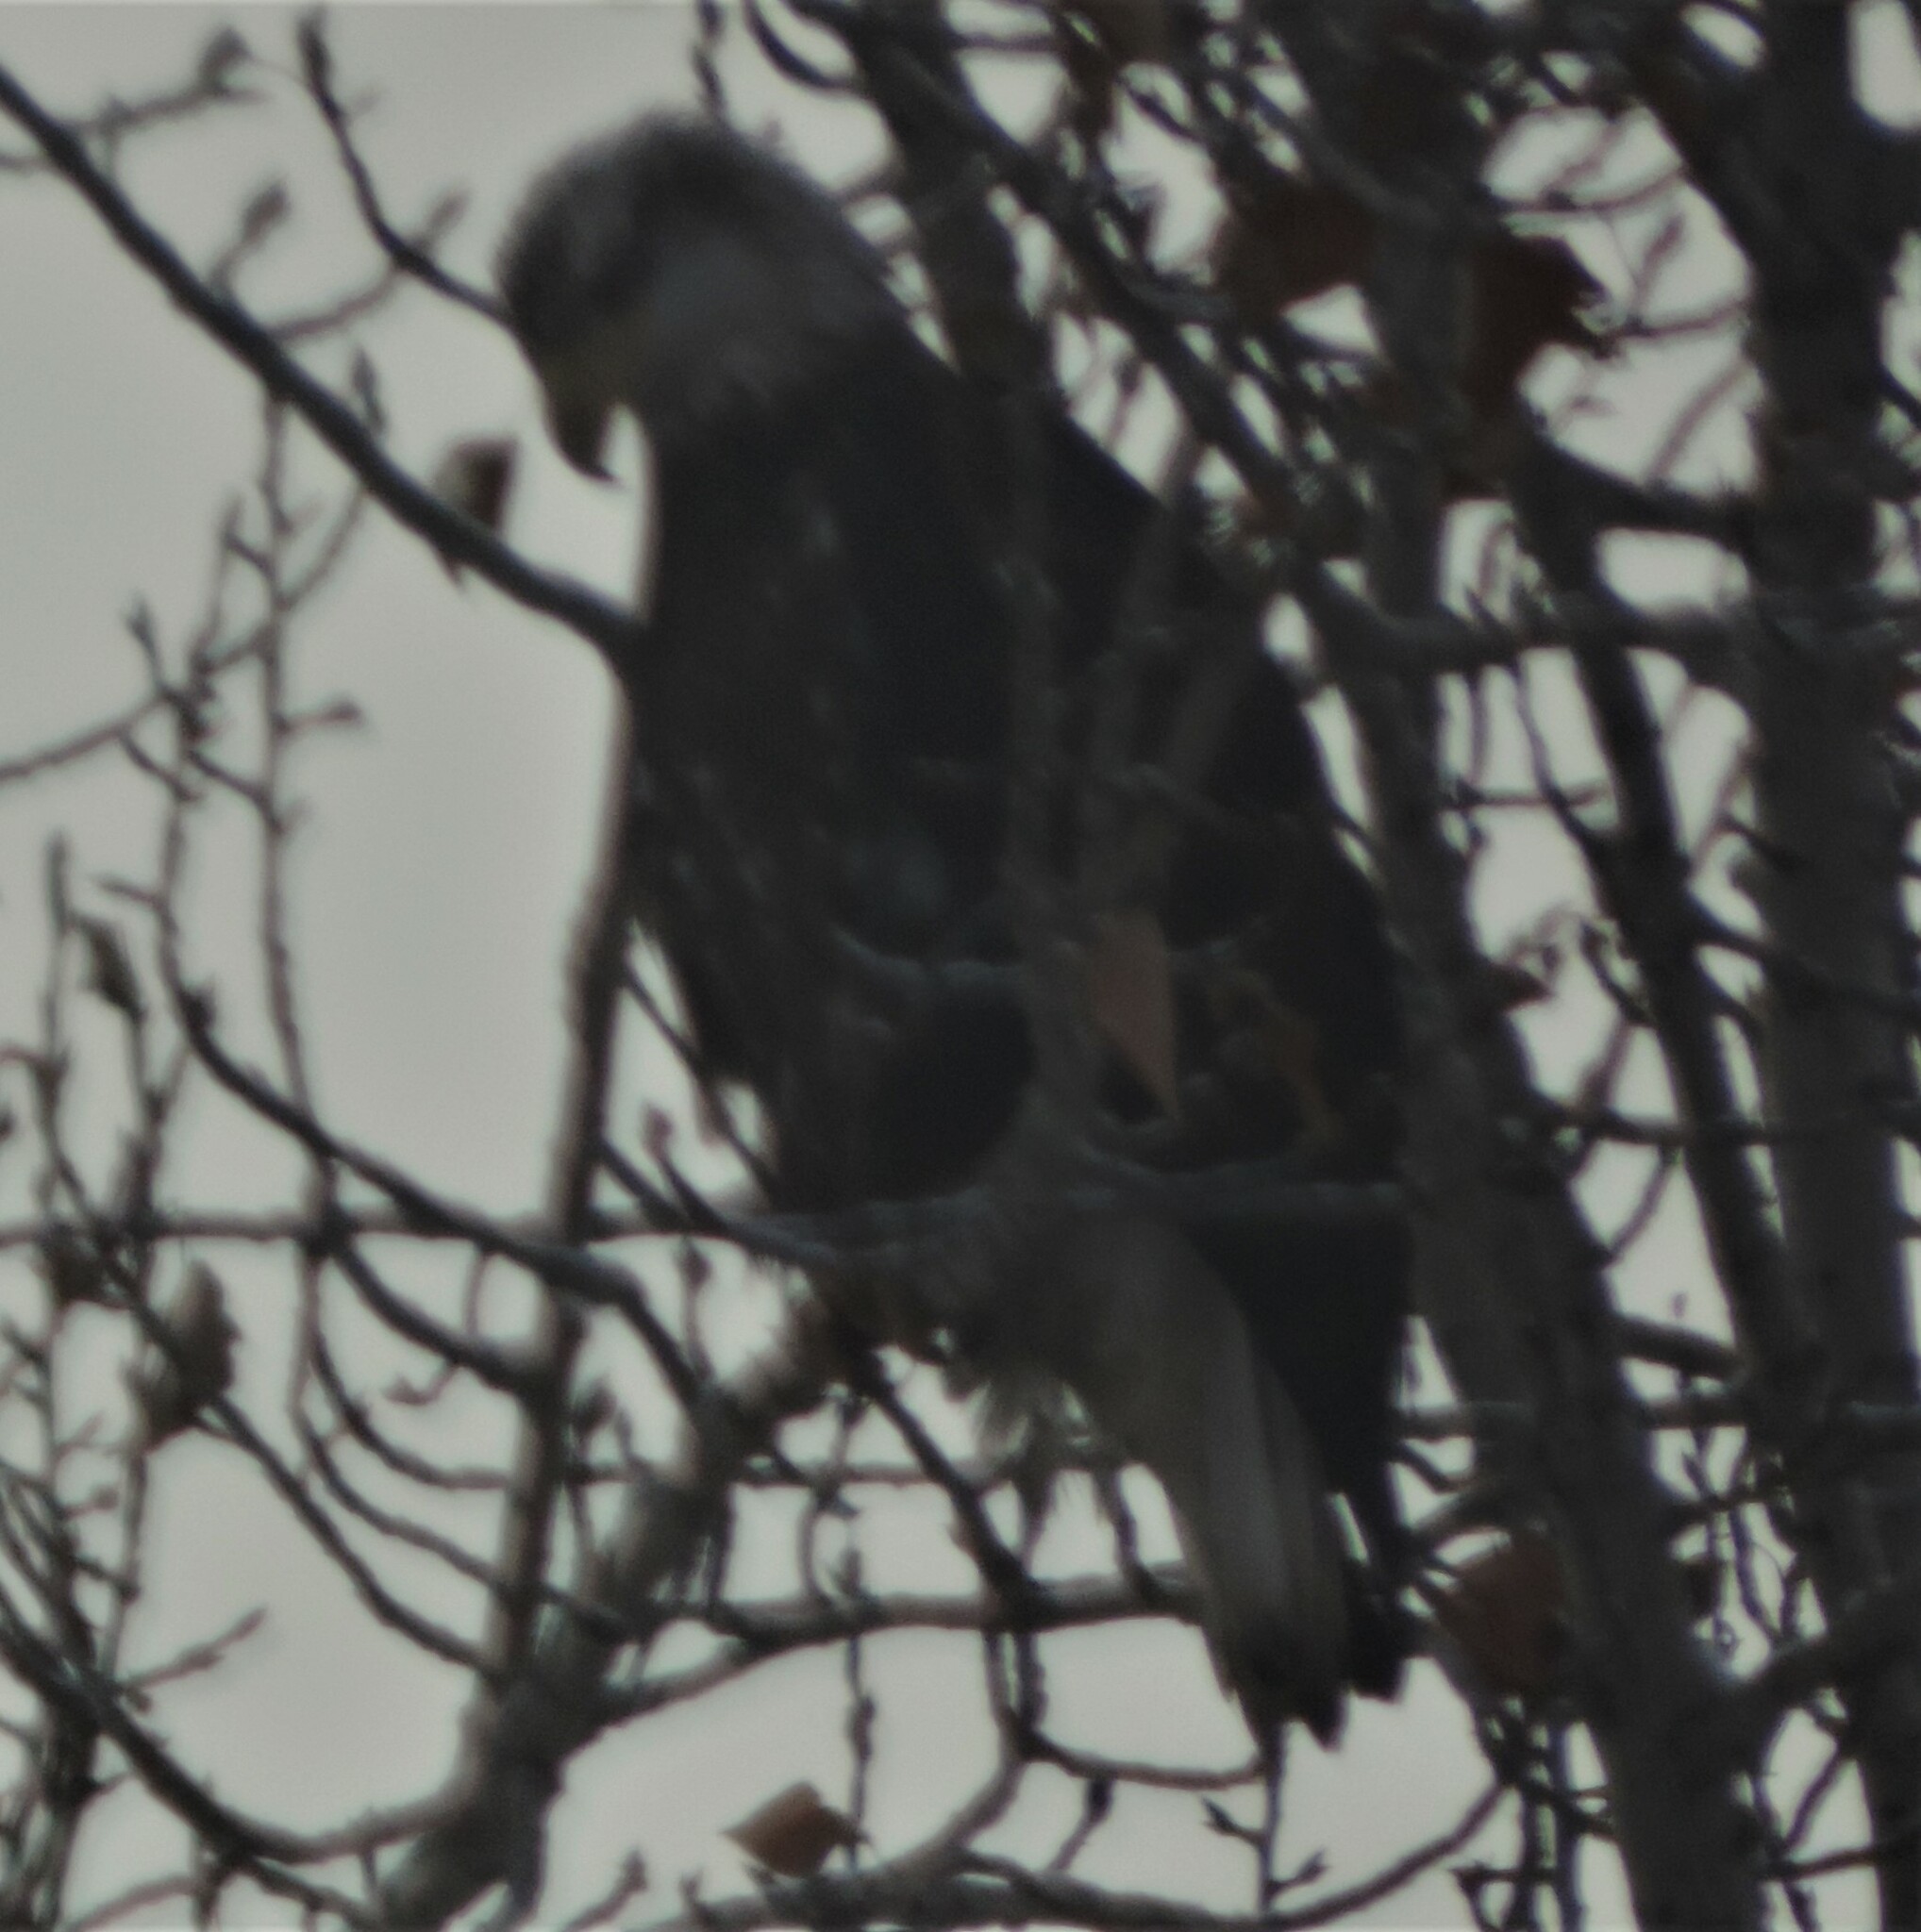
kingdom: Animalia
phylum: Chordata
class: Aves
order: Accipitriformes
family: Accipitridae
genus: Haliaeetus
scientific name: Haliaeetus leucocephalus
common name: Bald eagle
